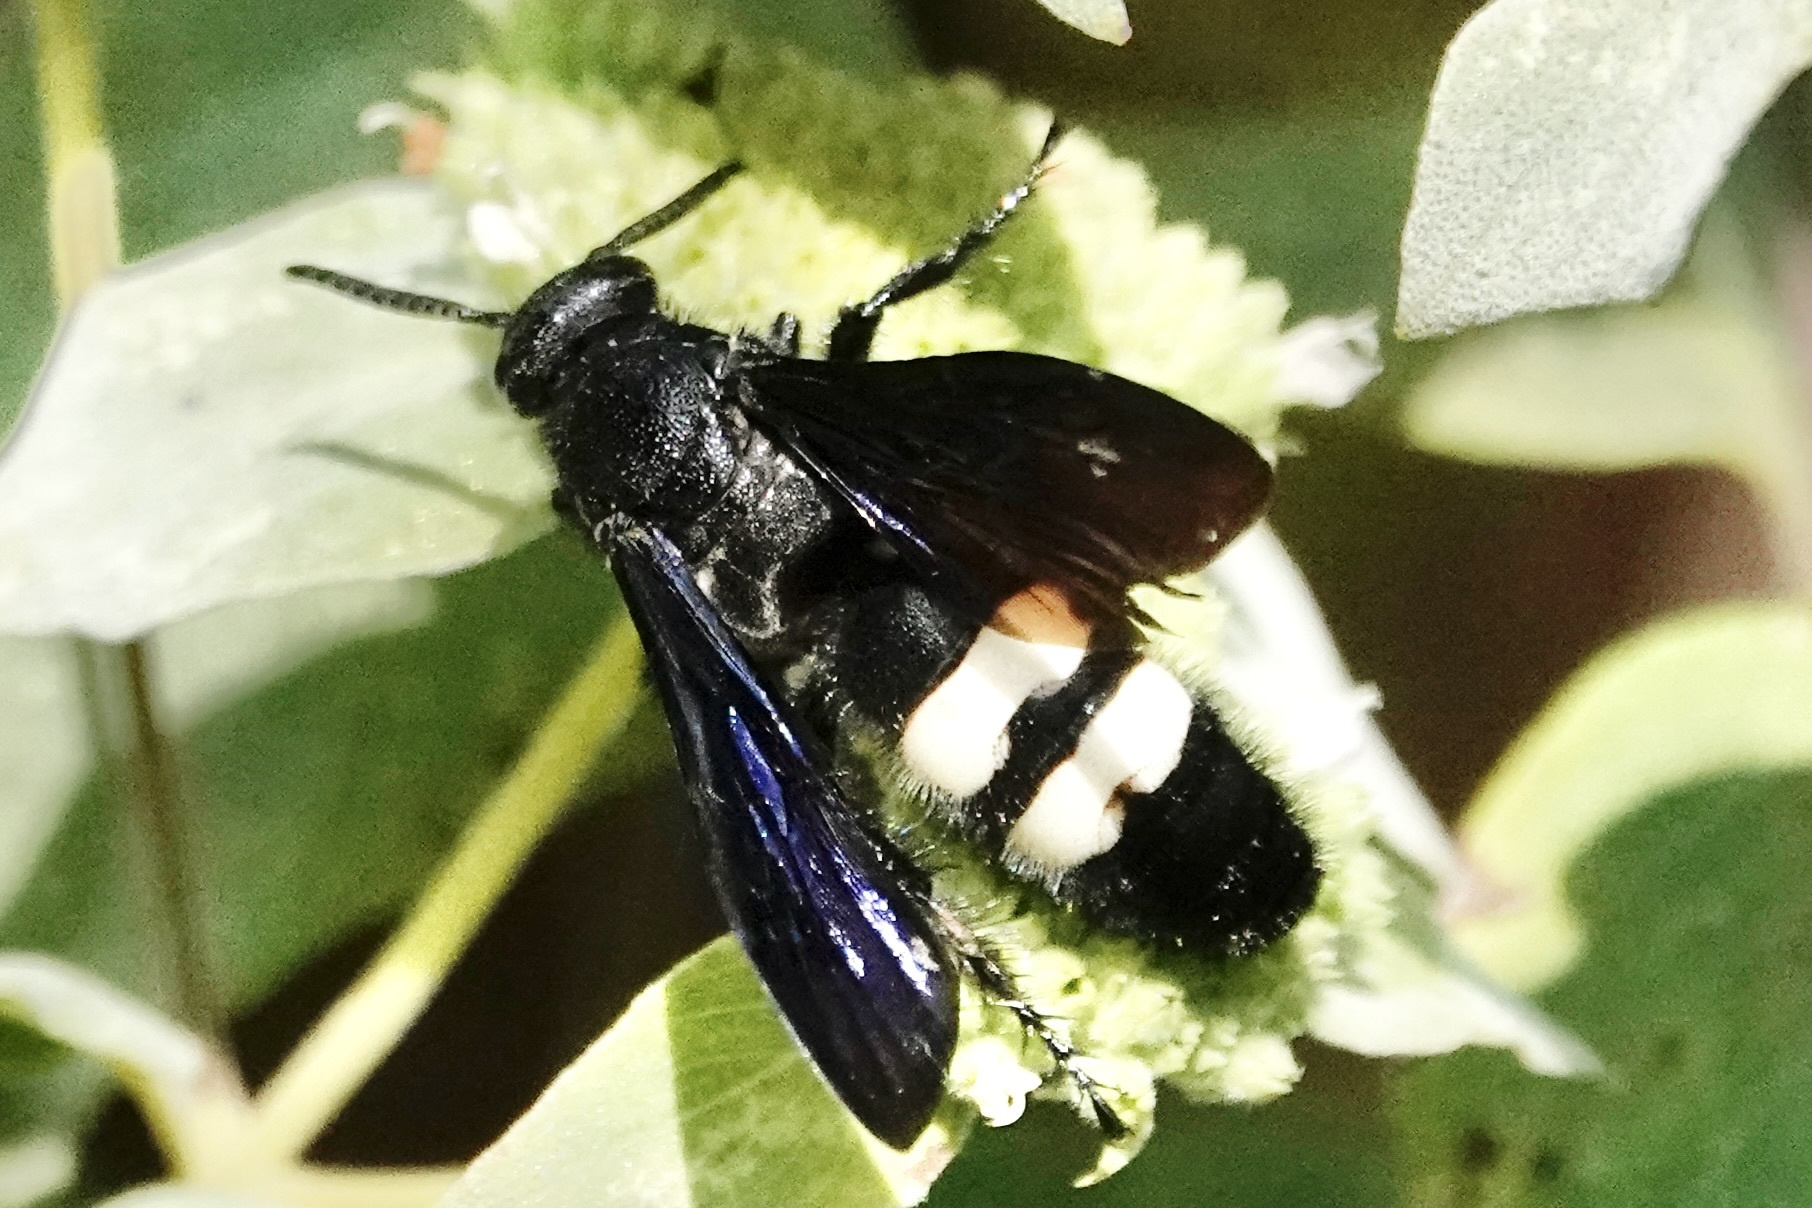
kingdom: Animalia
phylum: Arthropoda
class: Insecta
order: Hymenoptera
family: Scoliidae
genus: Scolia
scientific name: Scolia bicincta
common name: Double-banded scoliid wasp
